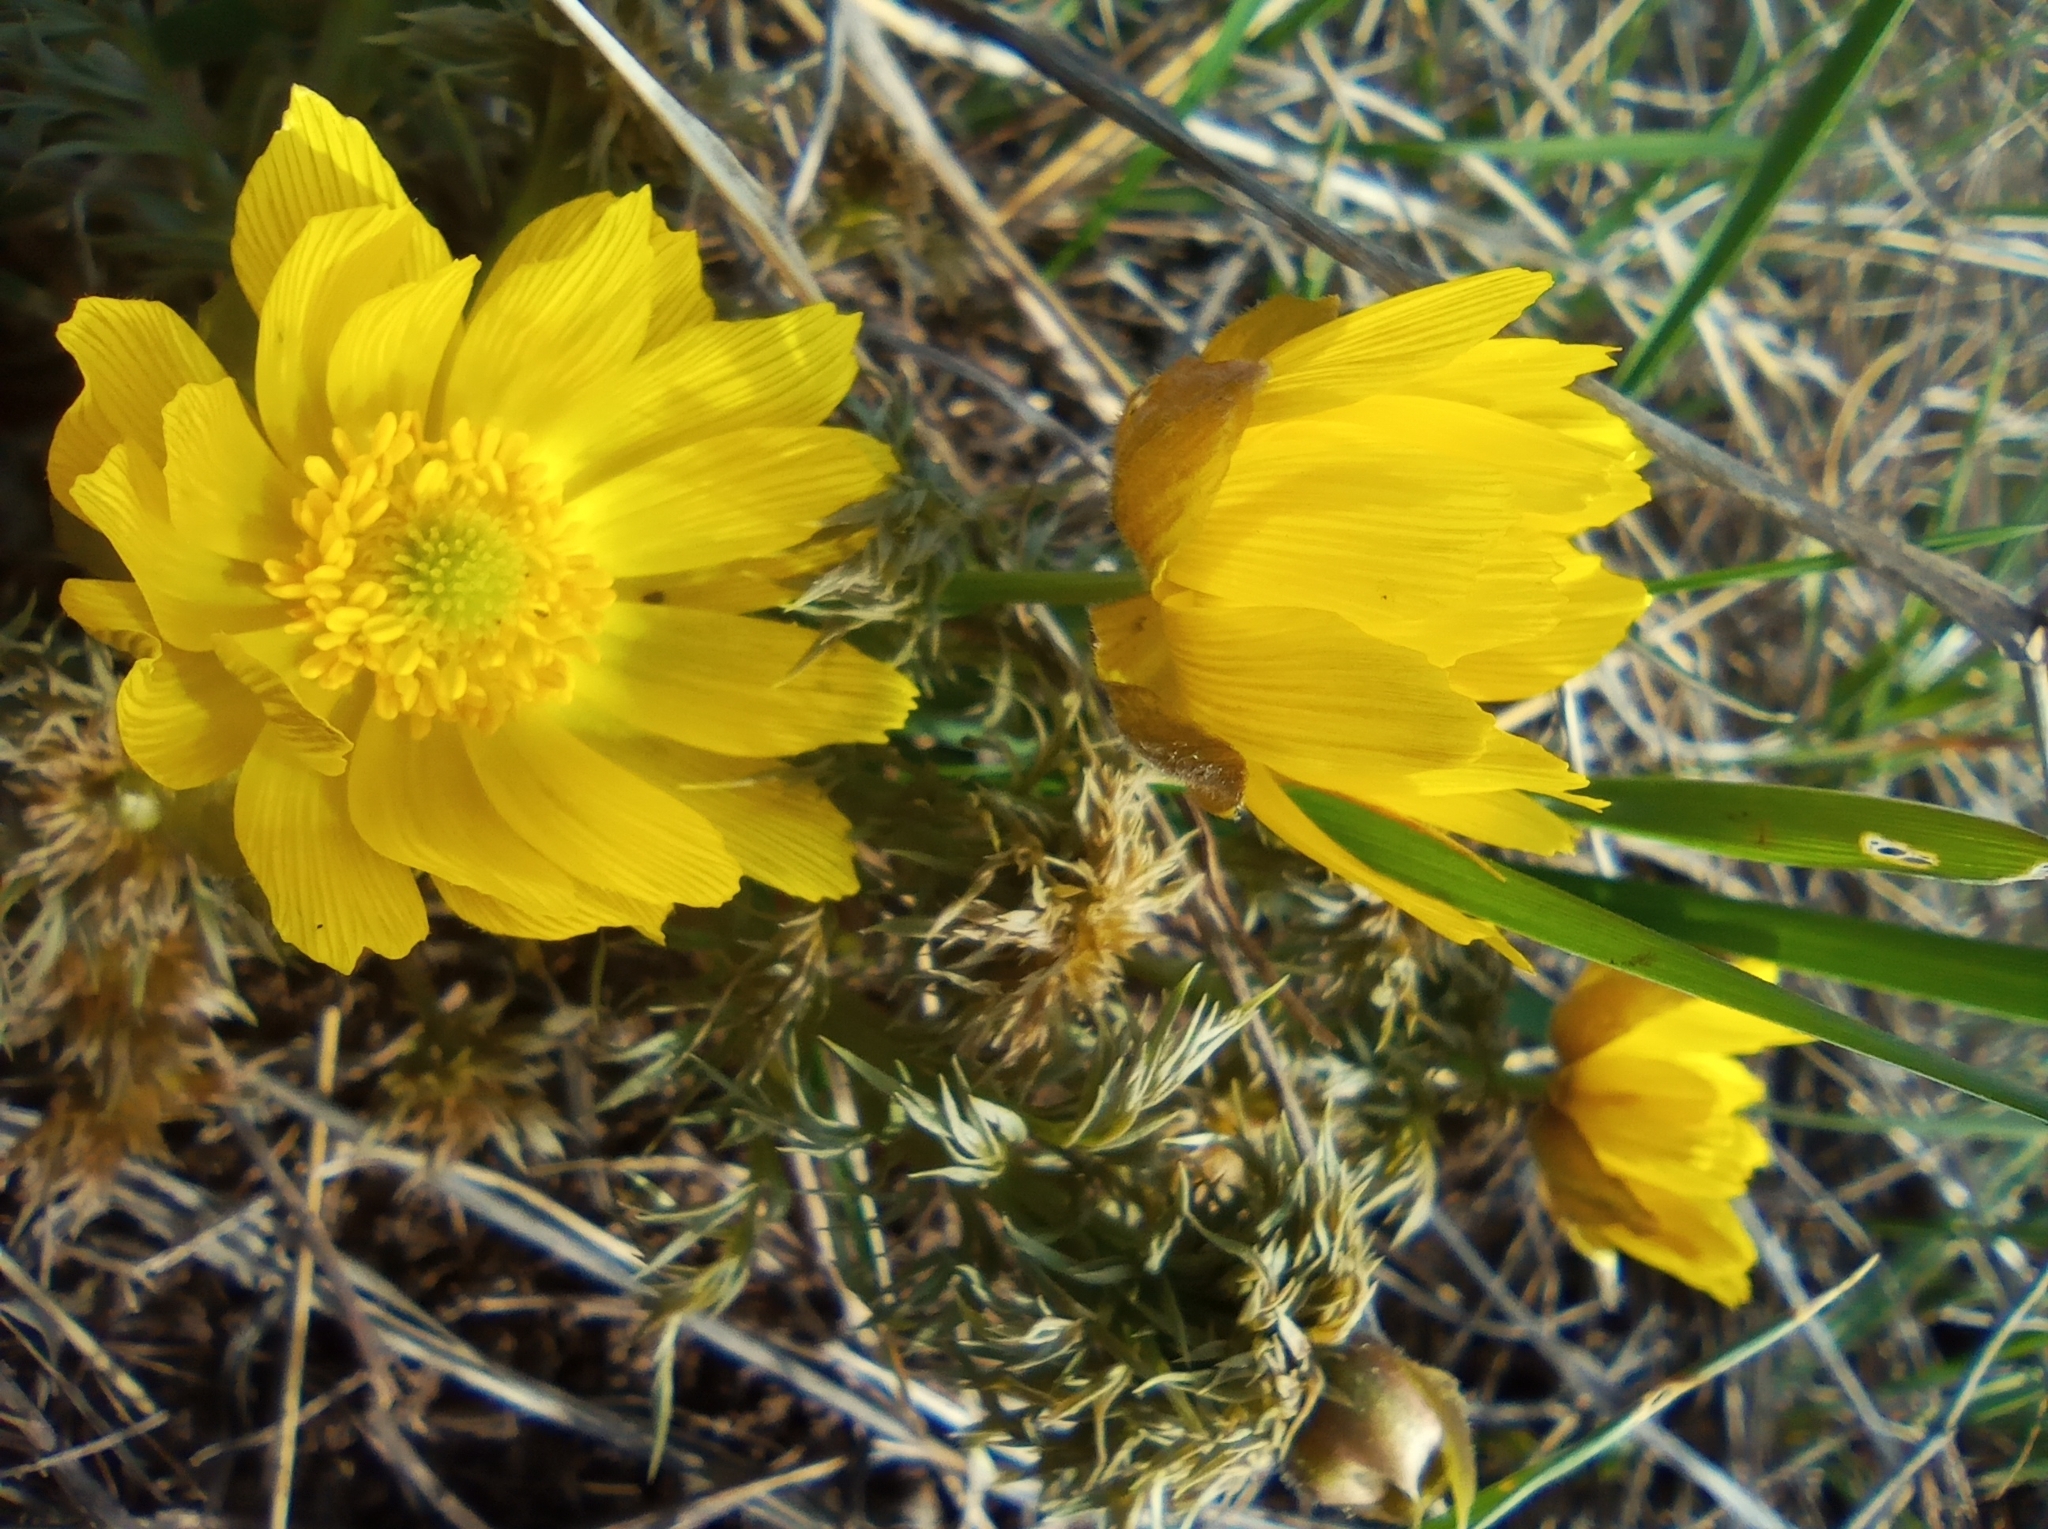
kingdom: Plantae
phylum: Tracheophyta
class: Magnoliopsida
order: Ranunculales
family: Ranunculaceae
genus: Adonis
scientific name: Adonis volgensis
